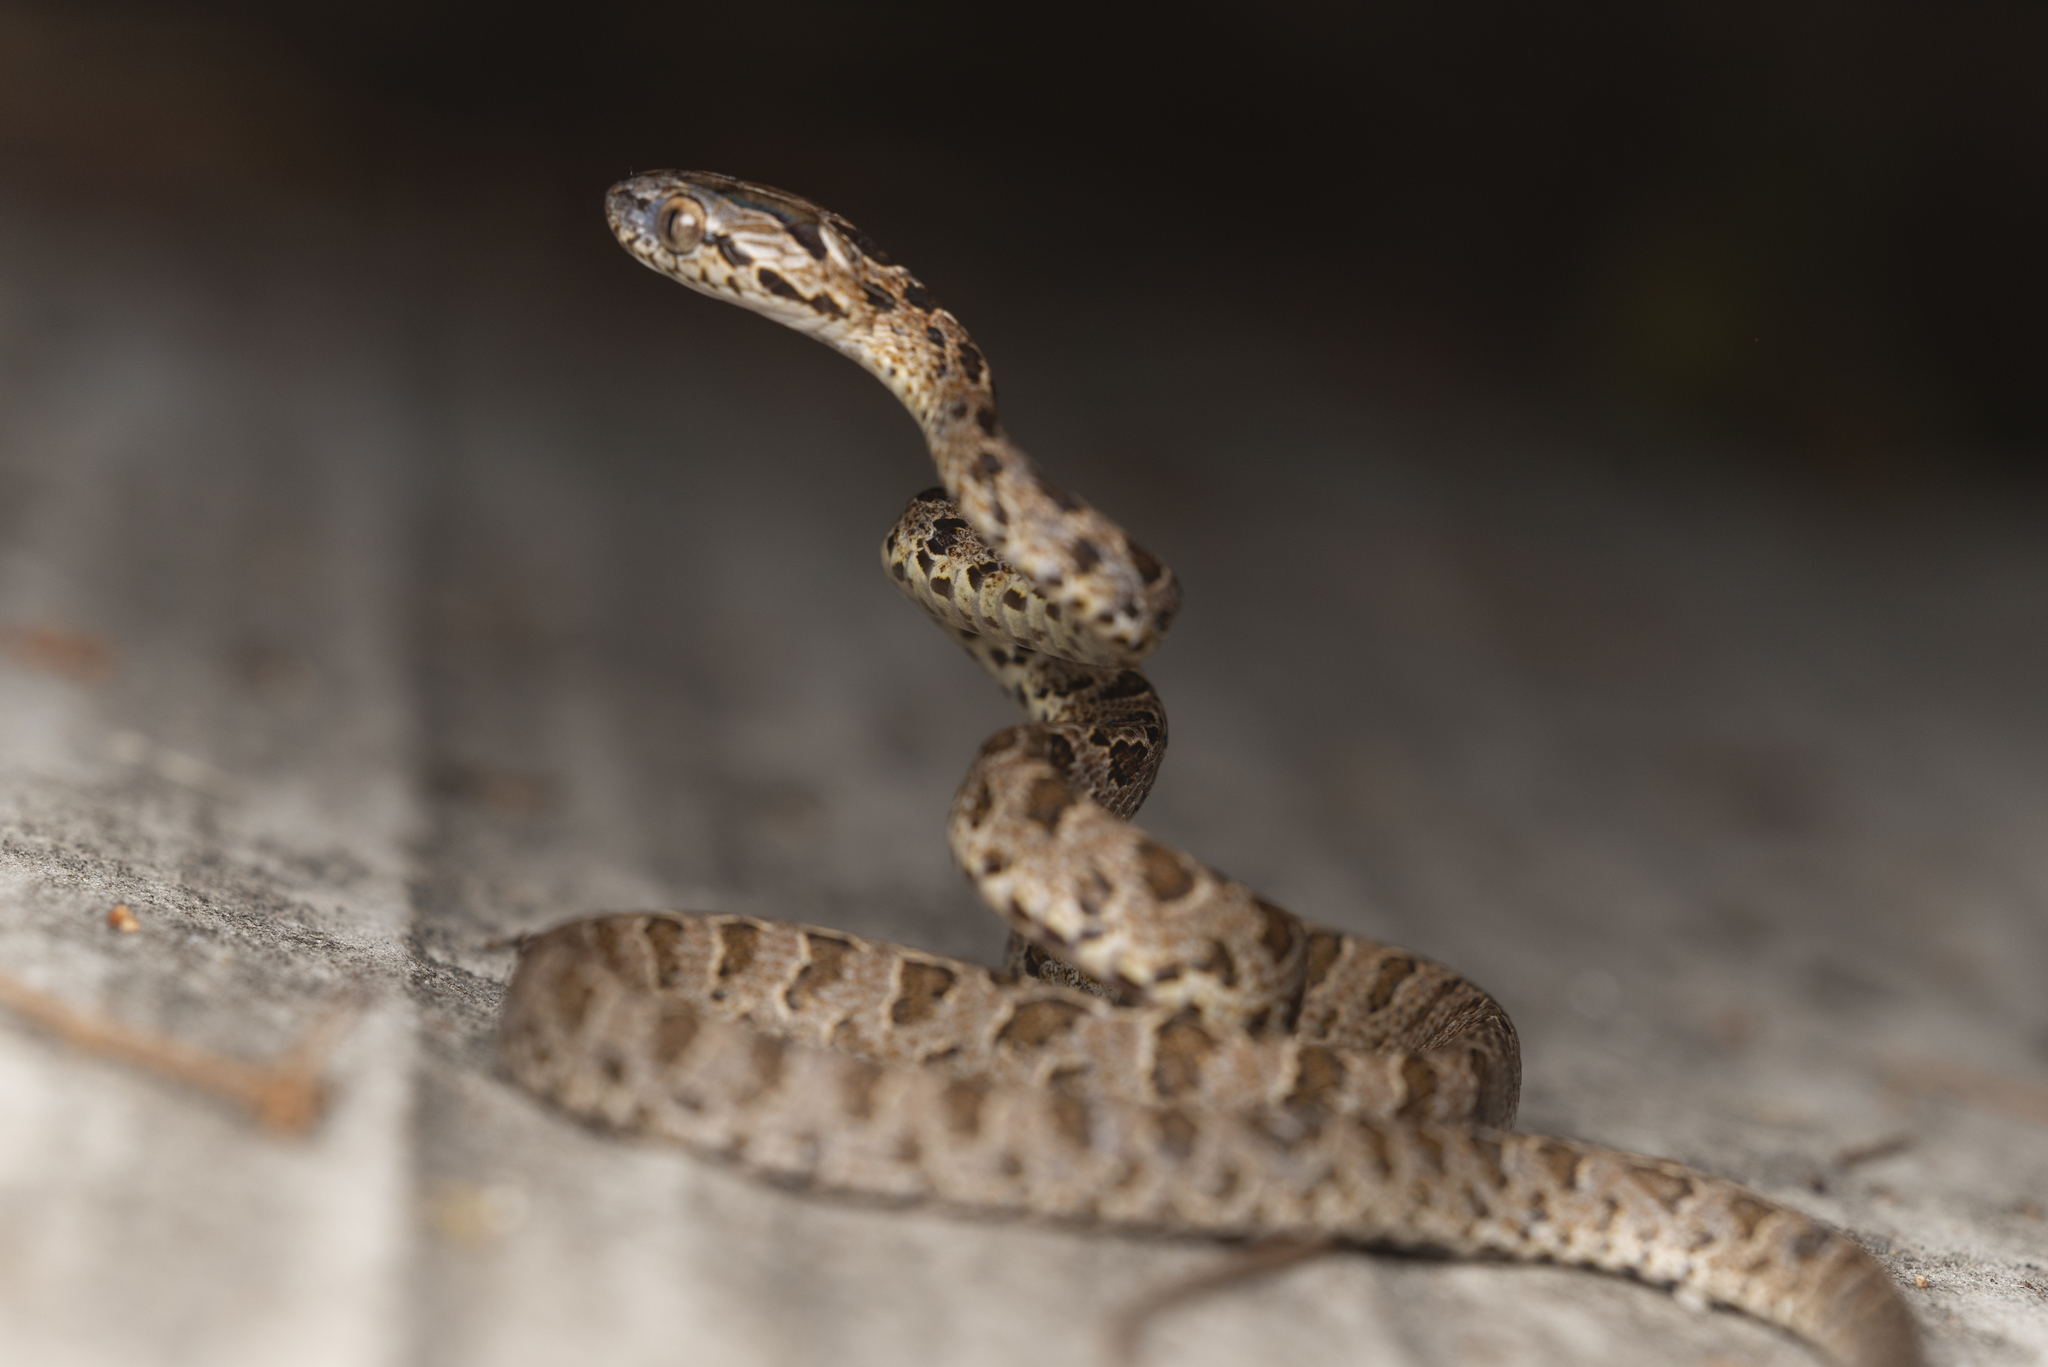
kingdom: Animalia
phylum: Chordata
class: Squamata
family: Colubridae
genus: Boiga
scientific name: Boiga multomaculata
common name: Many-spotted cat snake
